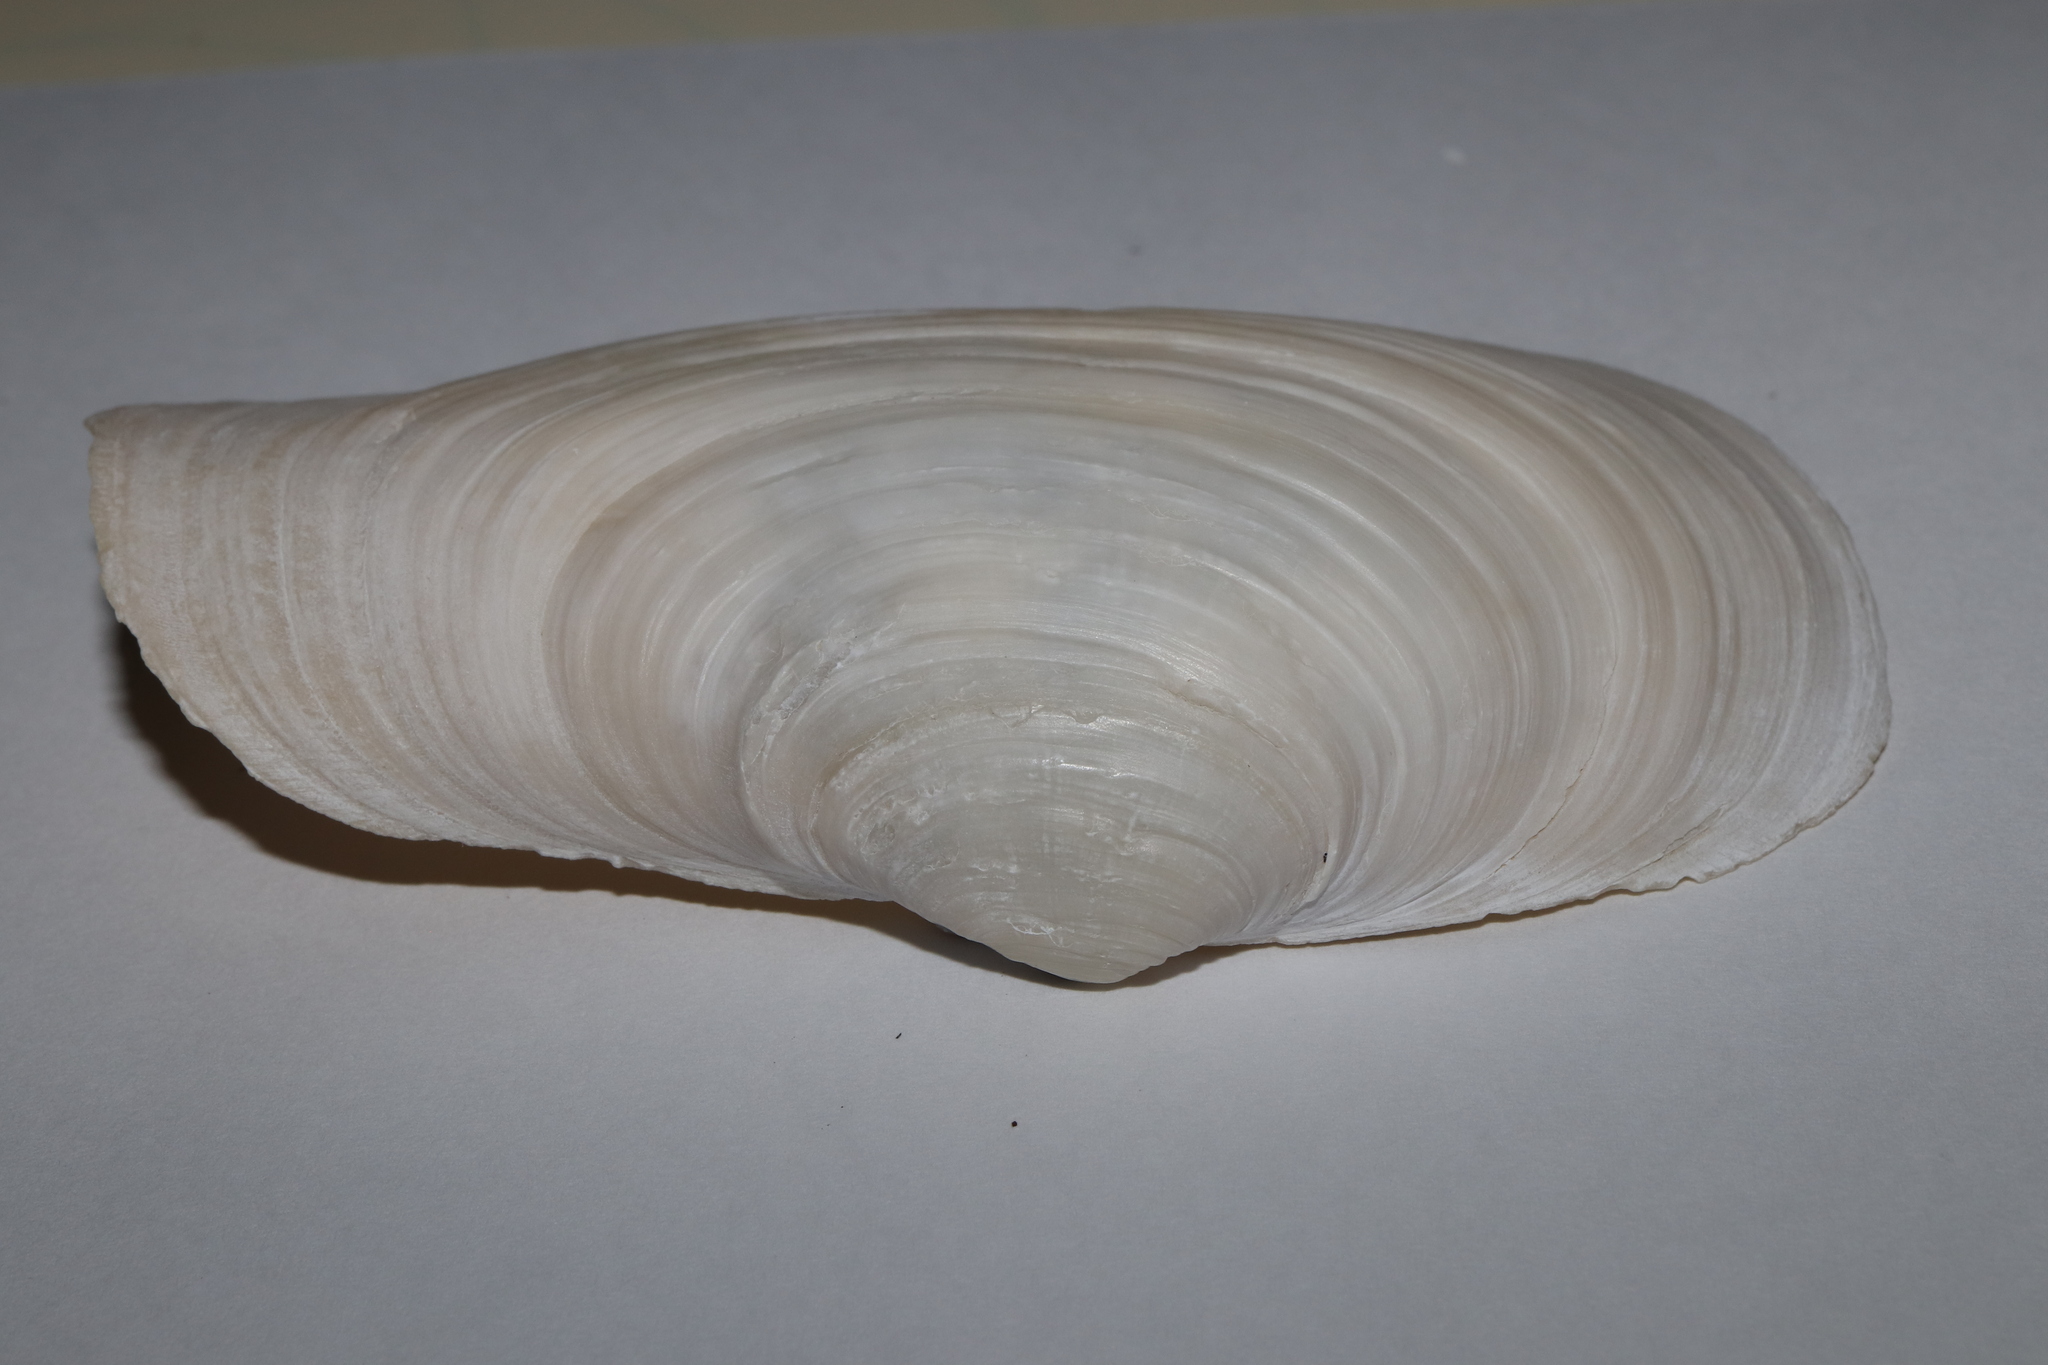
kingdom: Animalia
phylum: Mollusca
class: Bivalvia
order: Adapedonta
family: Hiatellidae
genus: Panopea
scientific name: Panopea japonica
